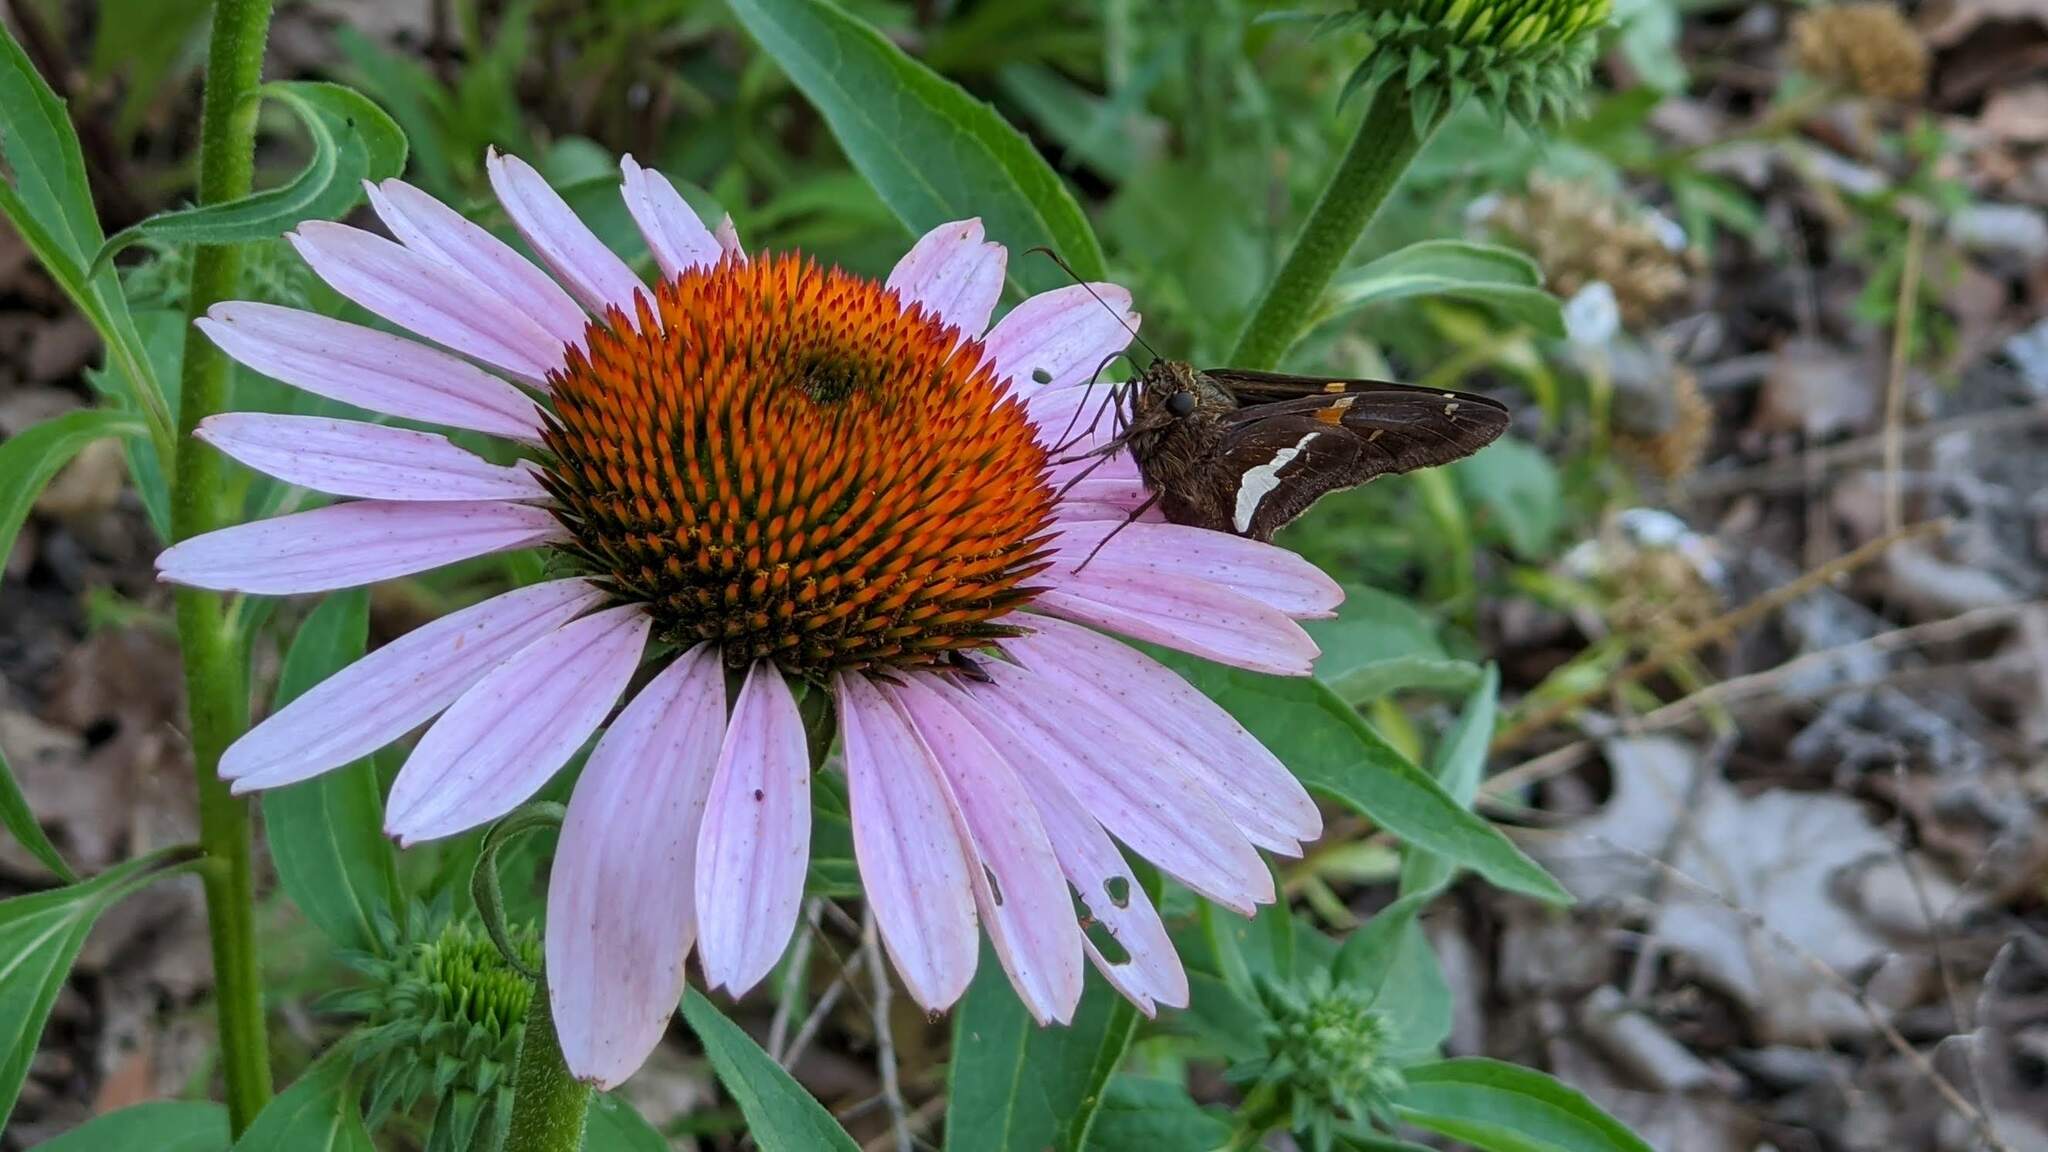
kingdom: Animalia
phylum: Arthropoda
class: Insecta
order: Lepidoptera
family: Hesperiidae
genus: Epargyreus
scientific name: Epargyreus clarus
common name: Silver-spotted skipper
